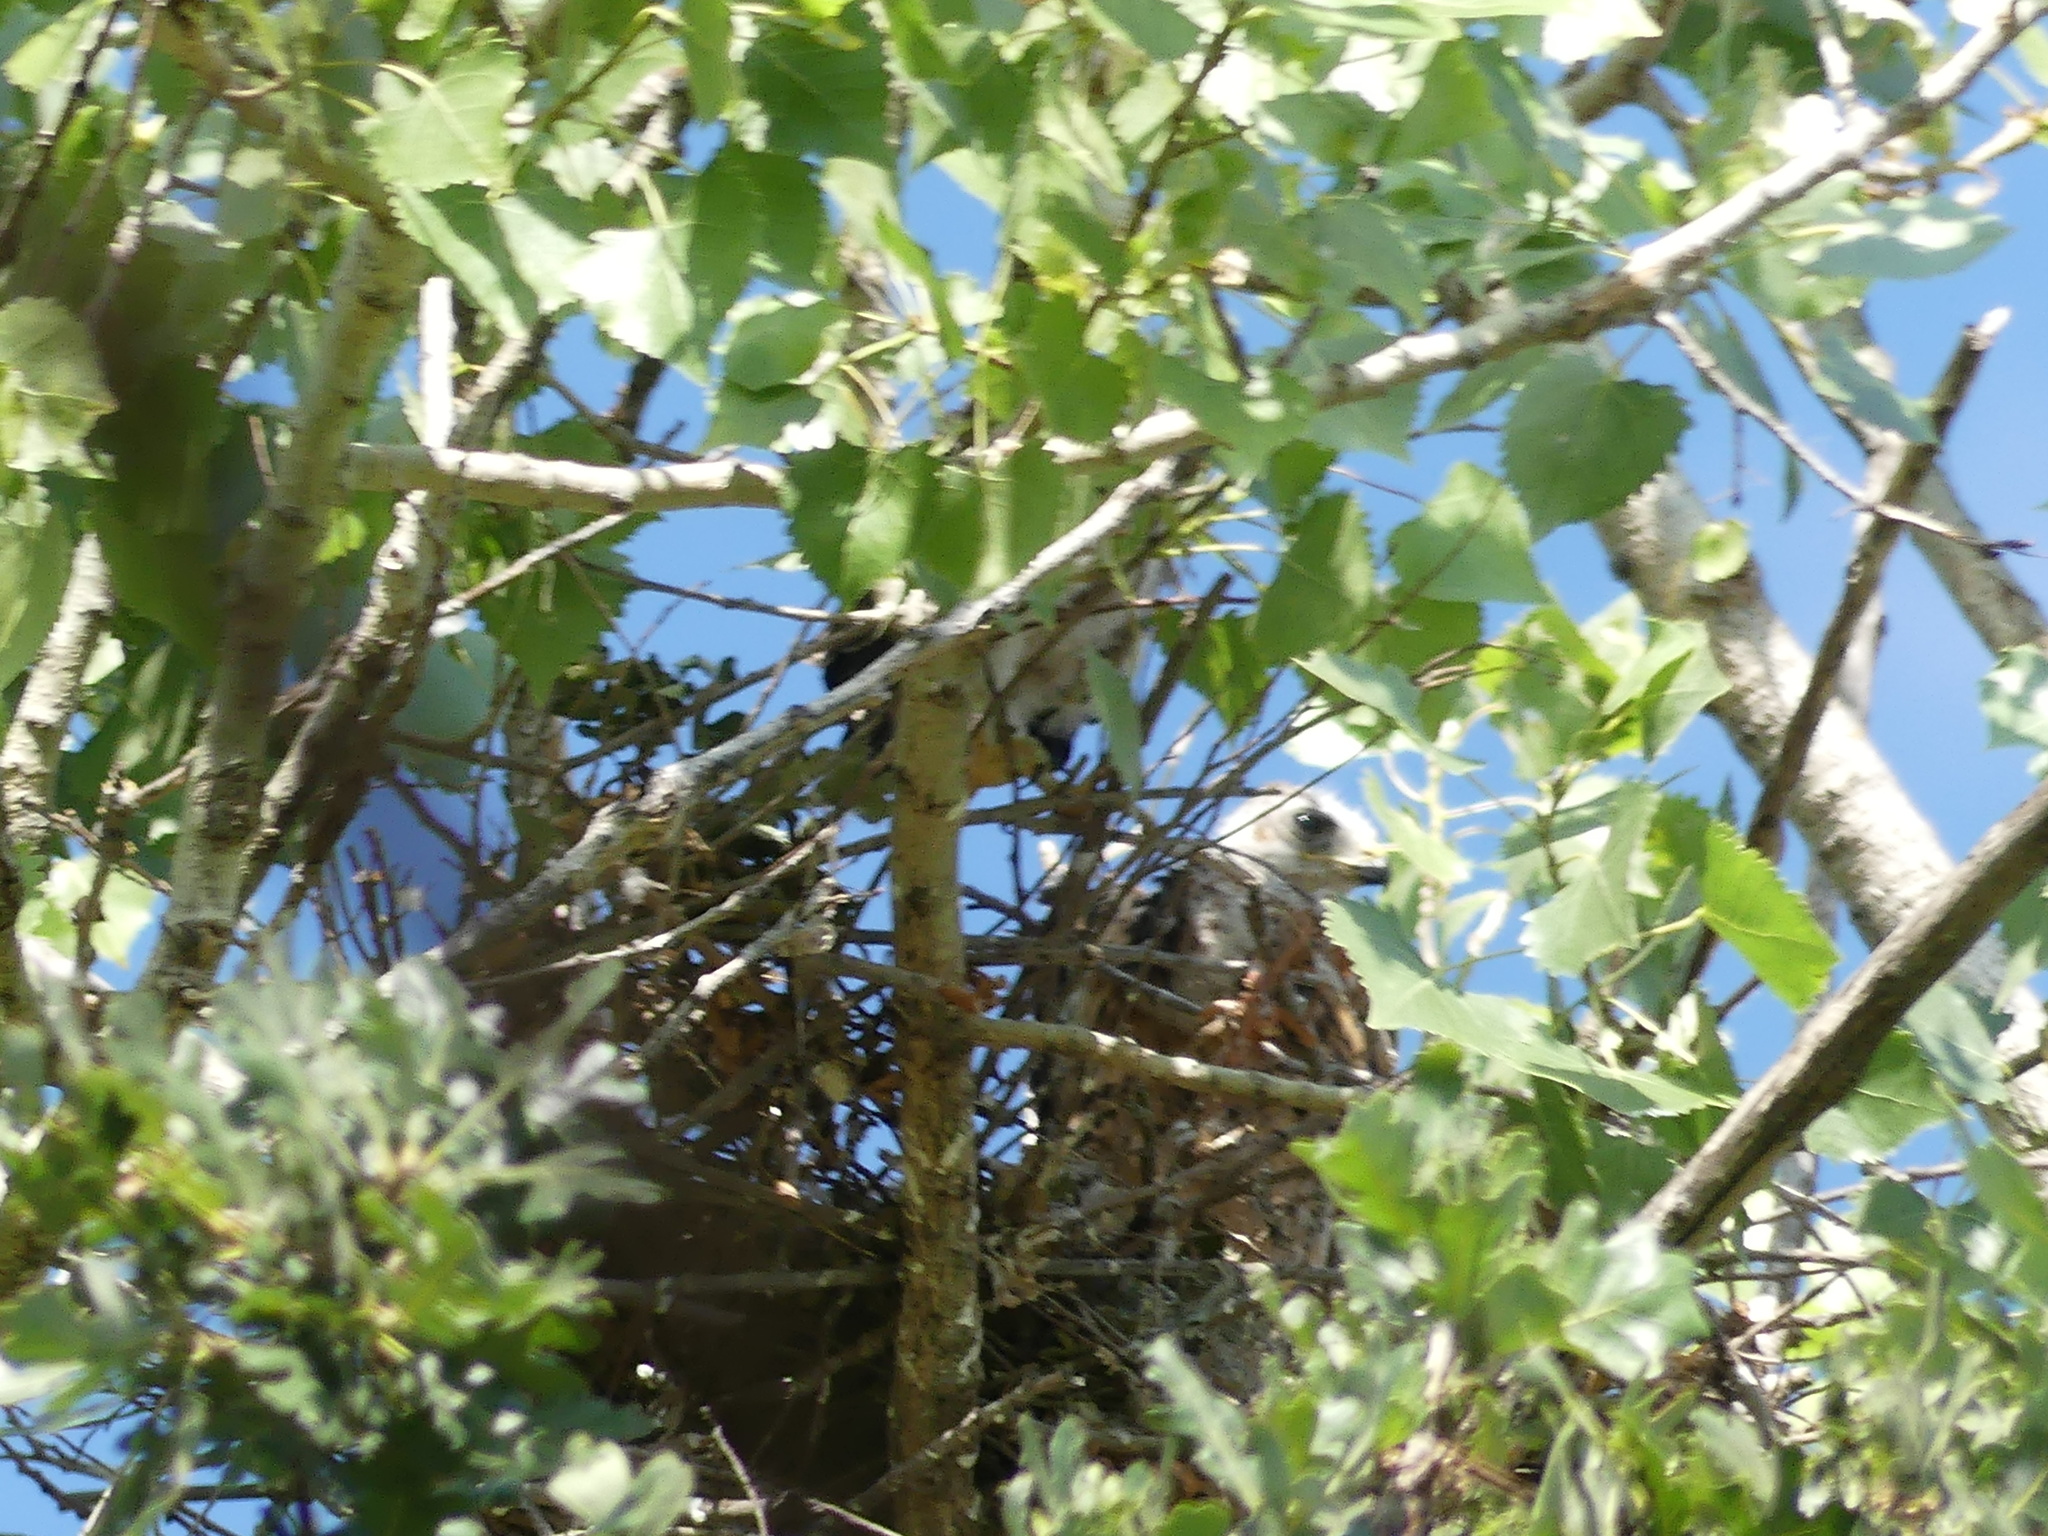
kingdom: Animalia
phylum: Chordata
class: Aves
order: Accipitriformes
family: Accipitridae
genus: Buteo
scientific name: Buteo jamaicensis
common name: Red-tailed hawk
